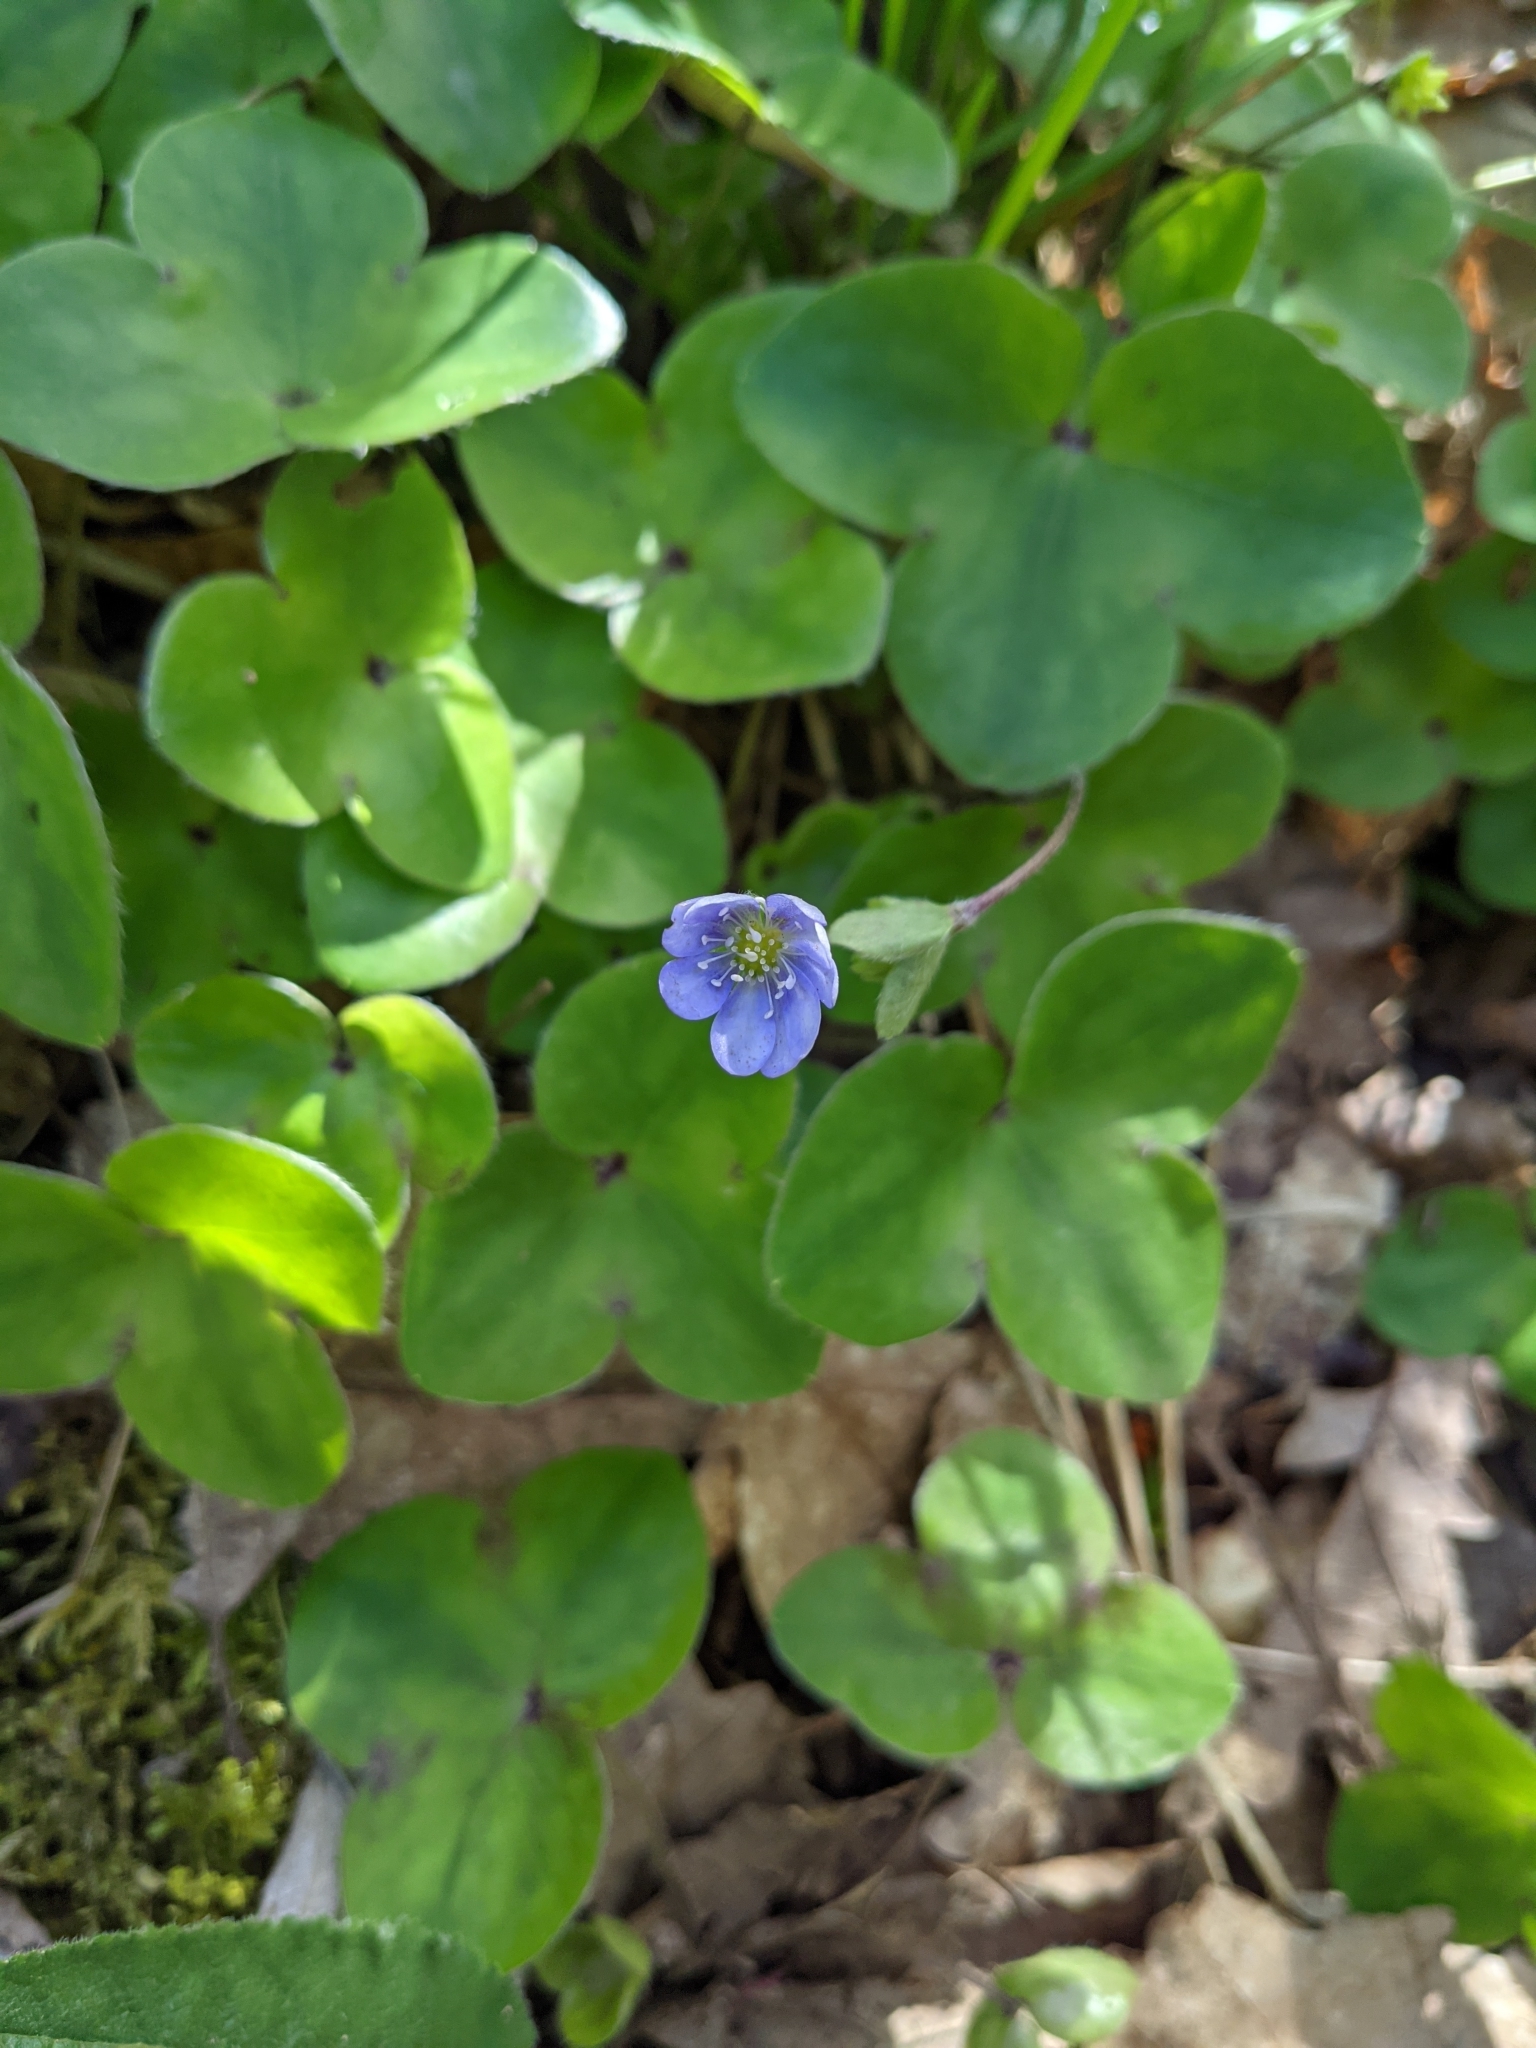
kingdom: Plantae
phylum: Tracheophyta
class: Magnoliopsida
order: Ranunculales
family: Ranunculaceae
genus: Hepatica
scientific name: Hepatica nobilis
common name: Liverleaf
